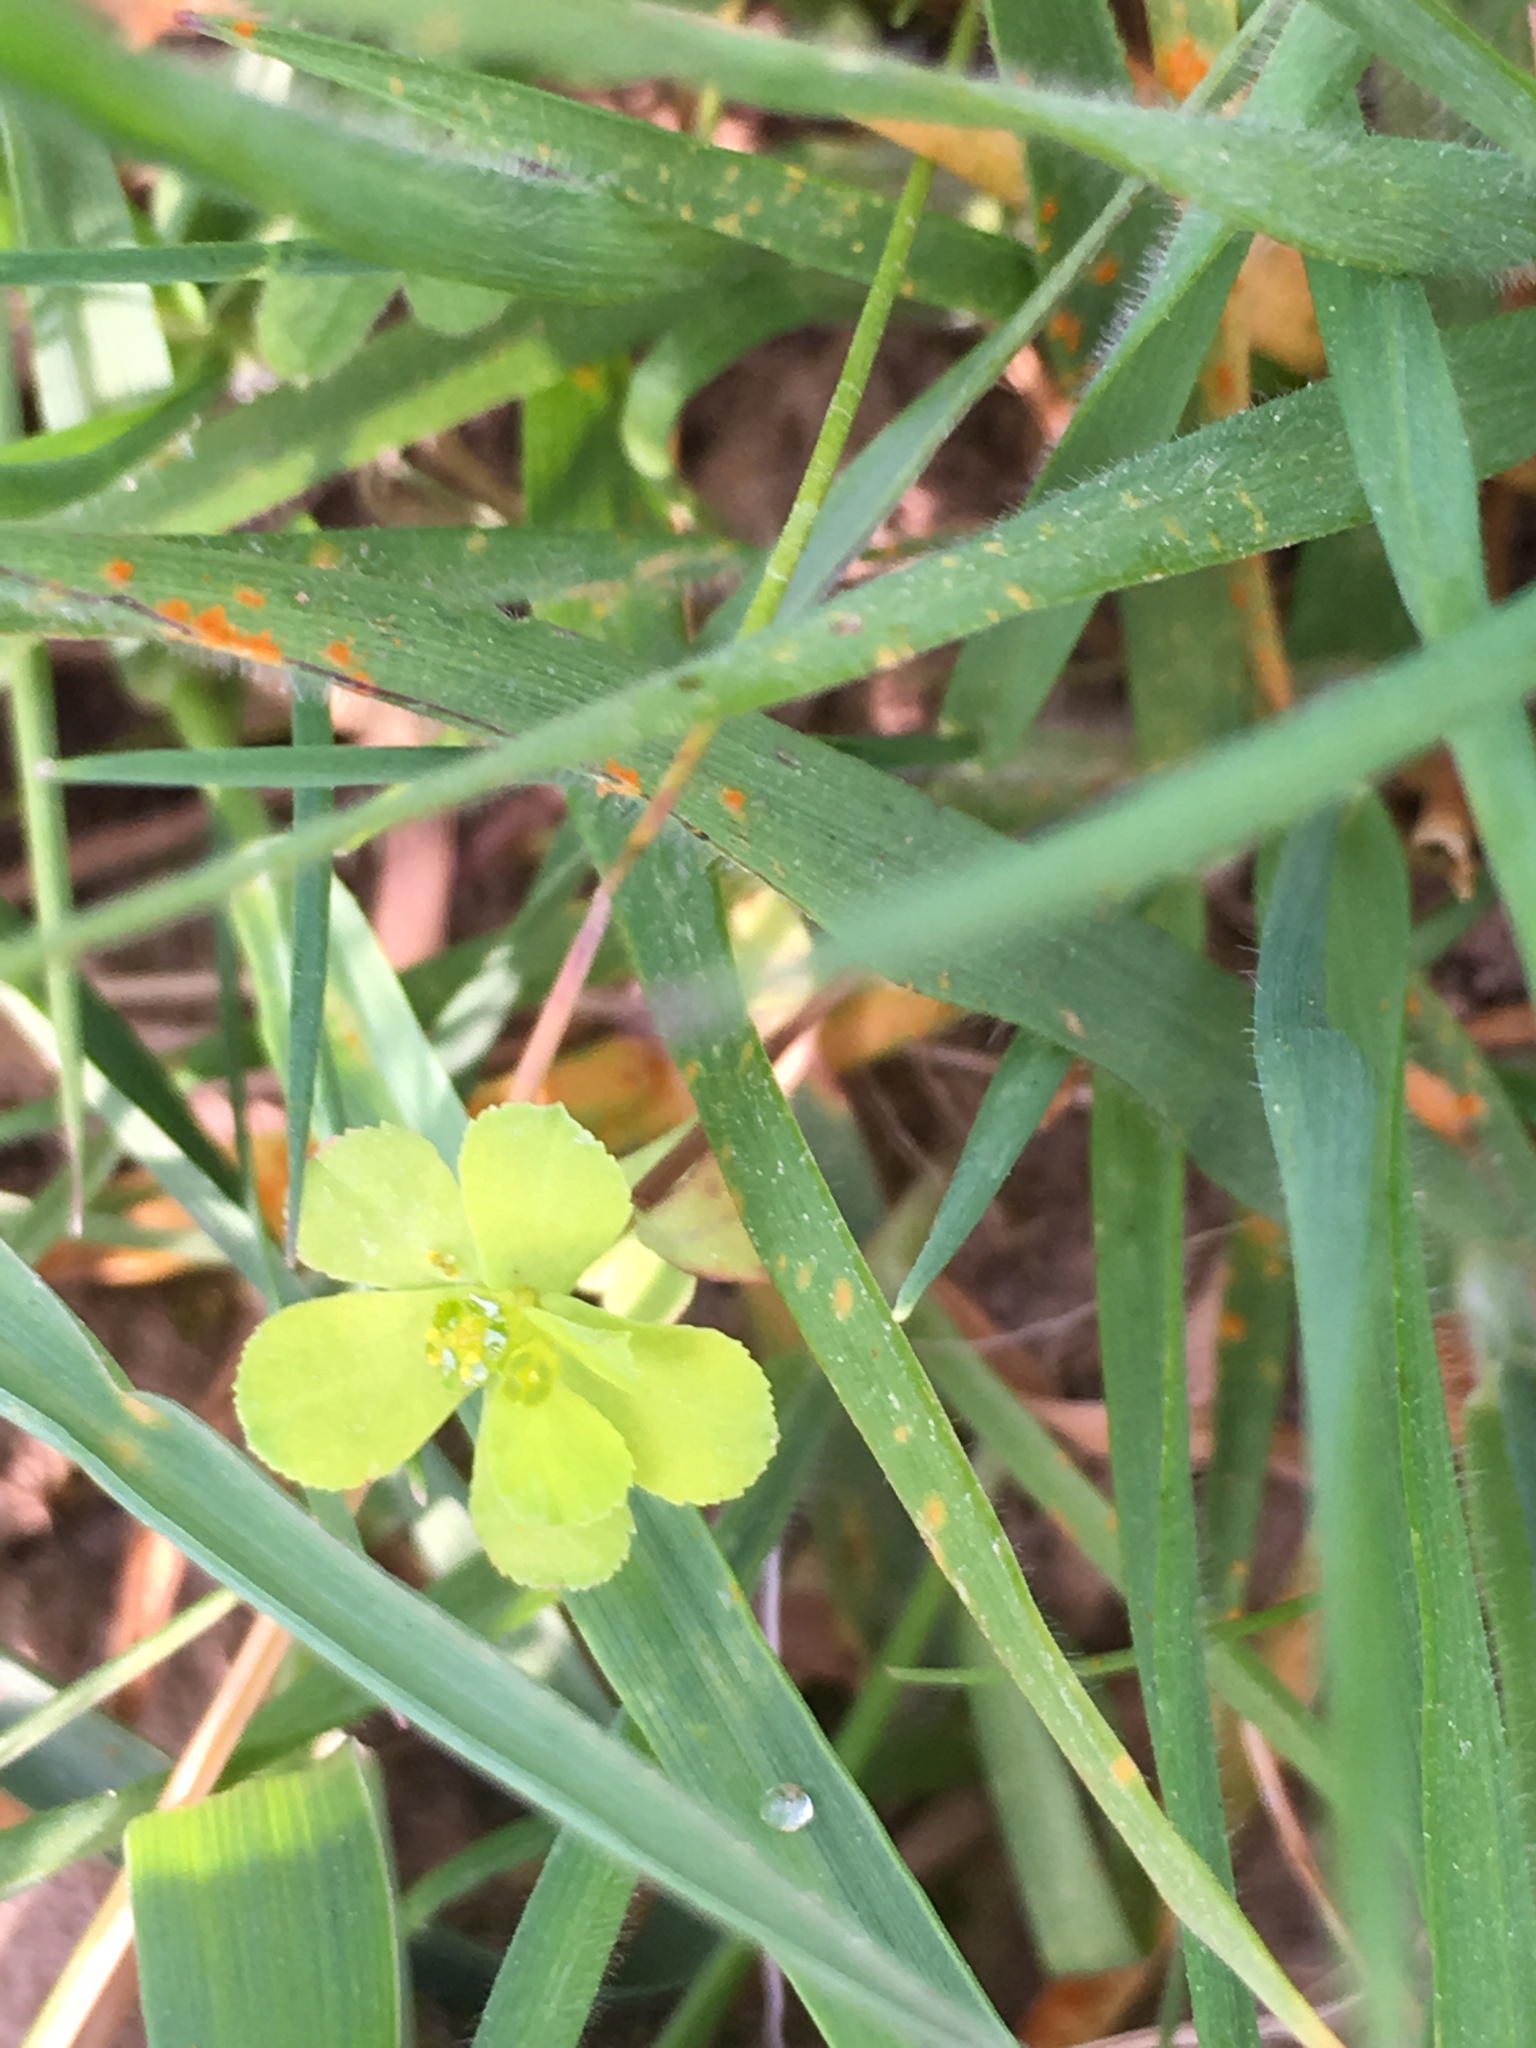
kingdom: Plantae
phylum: Tracheophyta
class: Magnoliopsida
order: Malpighiales
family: Euphorbiaceae
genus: Euphorbia
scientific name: Euphorbia helioscopia
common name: Sun spurge
